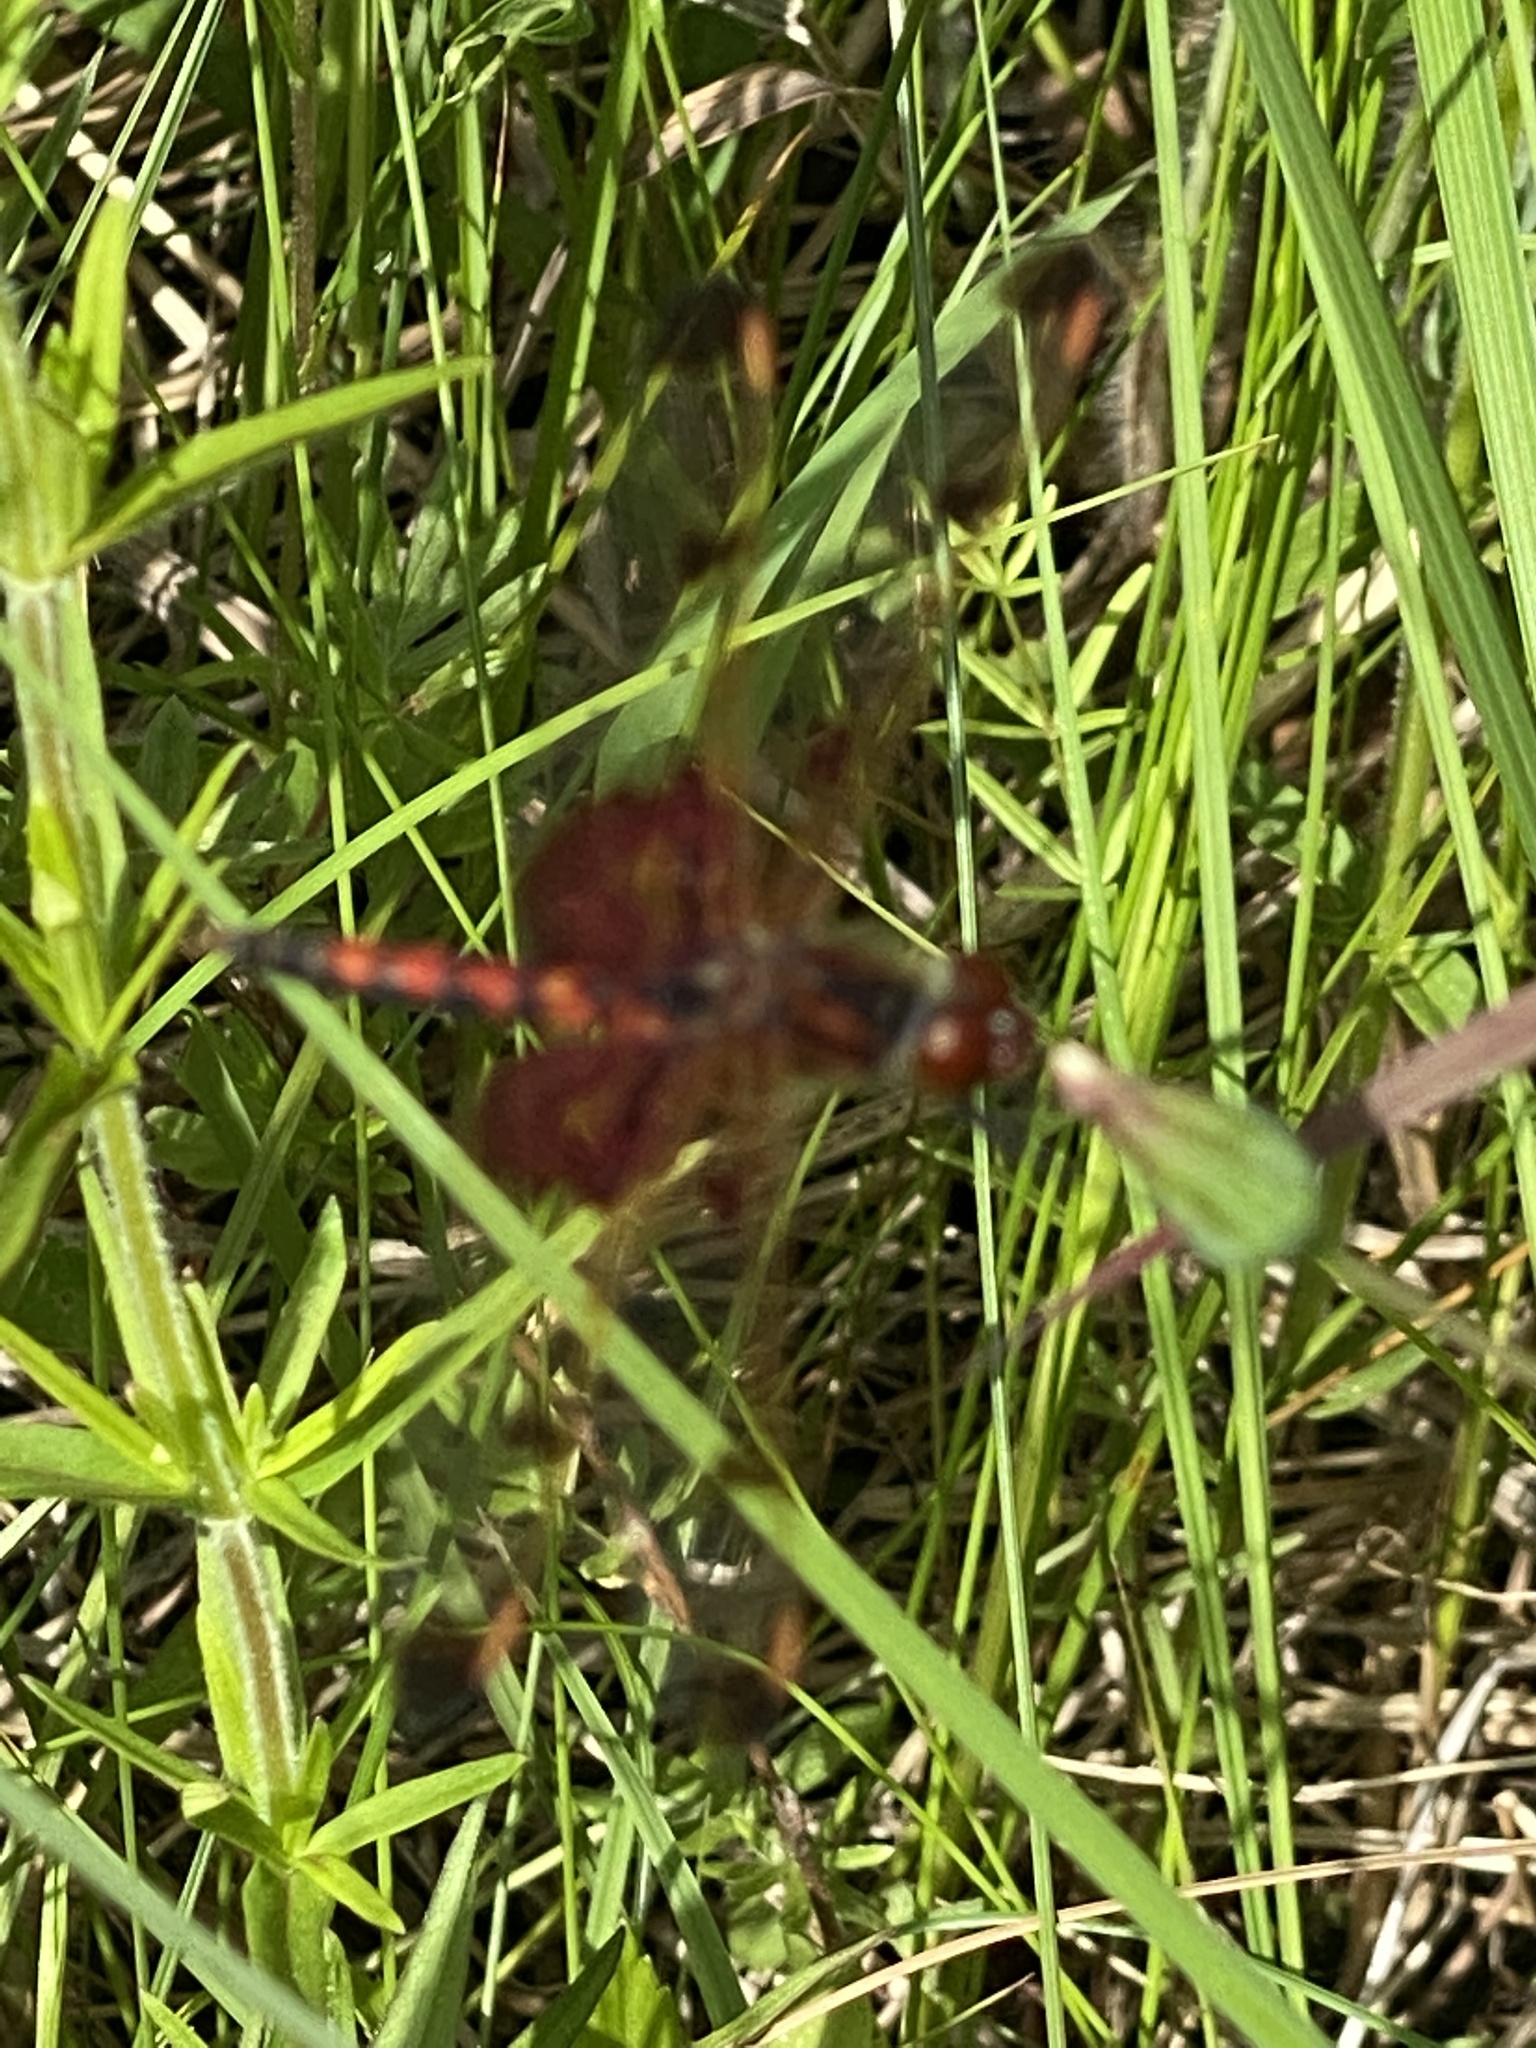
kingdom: Animalia
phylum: Arthropoda
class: Insecta
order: Odonata
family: Libellulidae
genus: Celithemis
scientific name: Celithemis elisa
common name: Calico pennant
